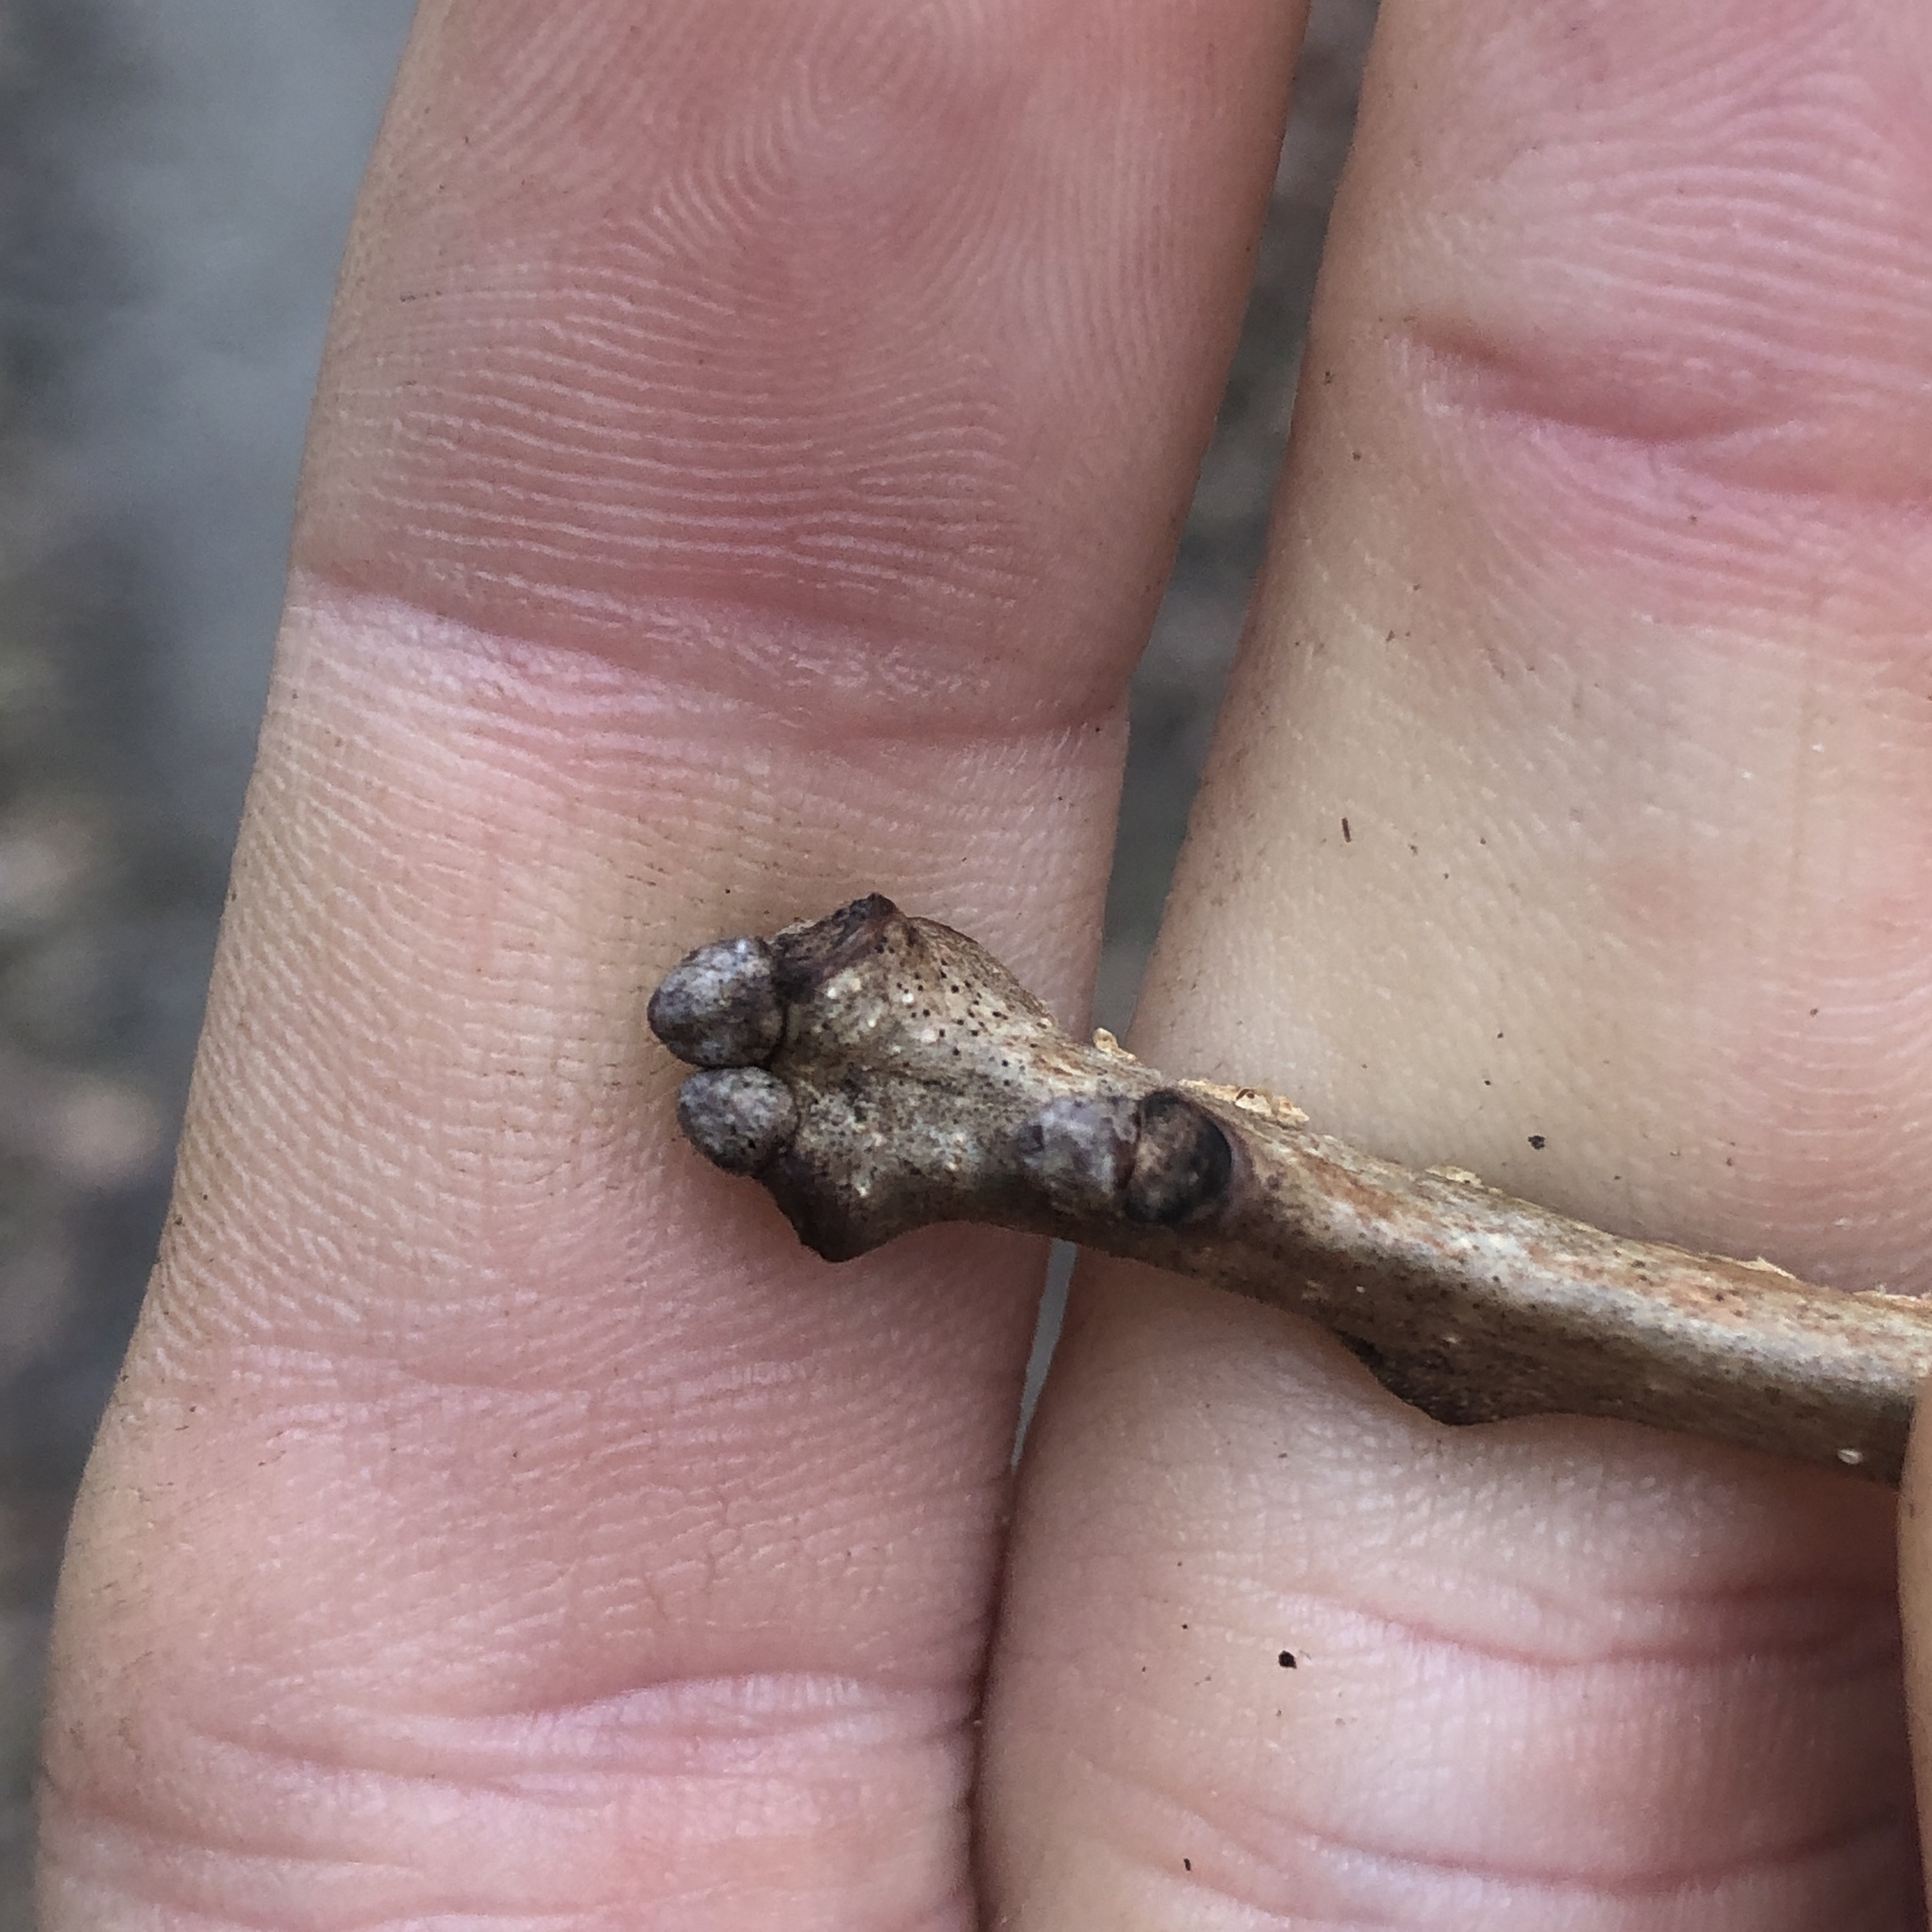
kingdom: Plantae
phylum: Tracheophyta
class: Magnoliopsida
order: Fagales
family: Fagaceae
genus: Quercus
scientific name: Quercus bicolor
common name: Swamp white oak
